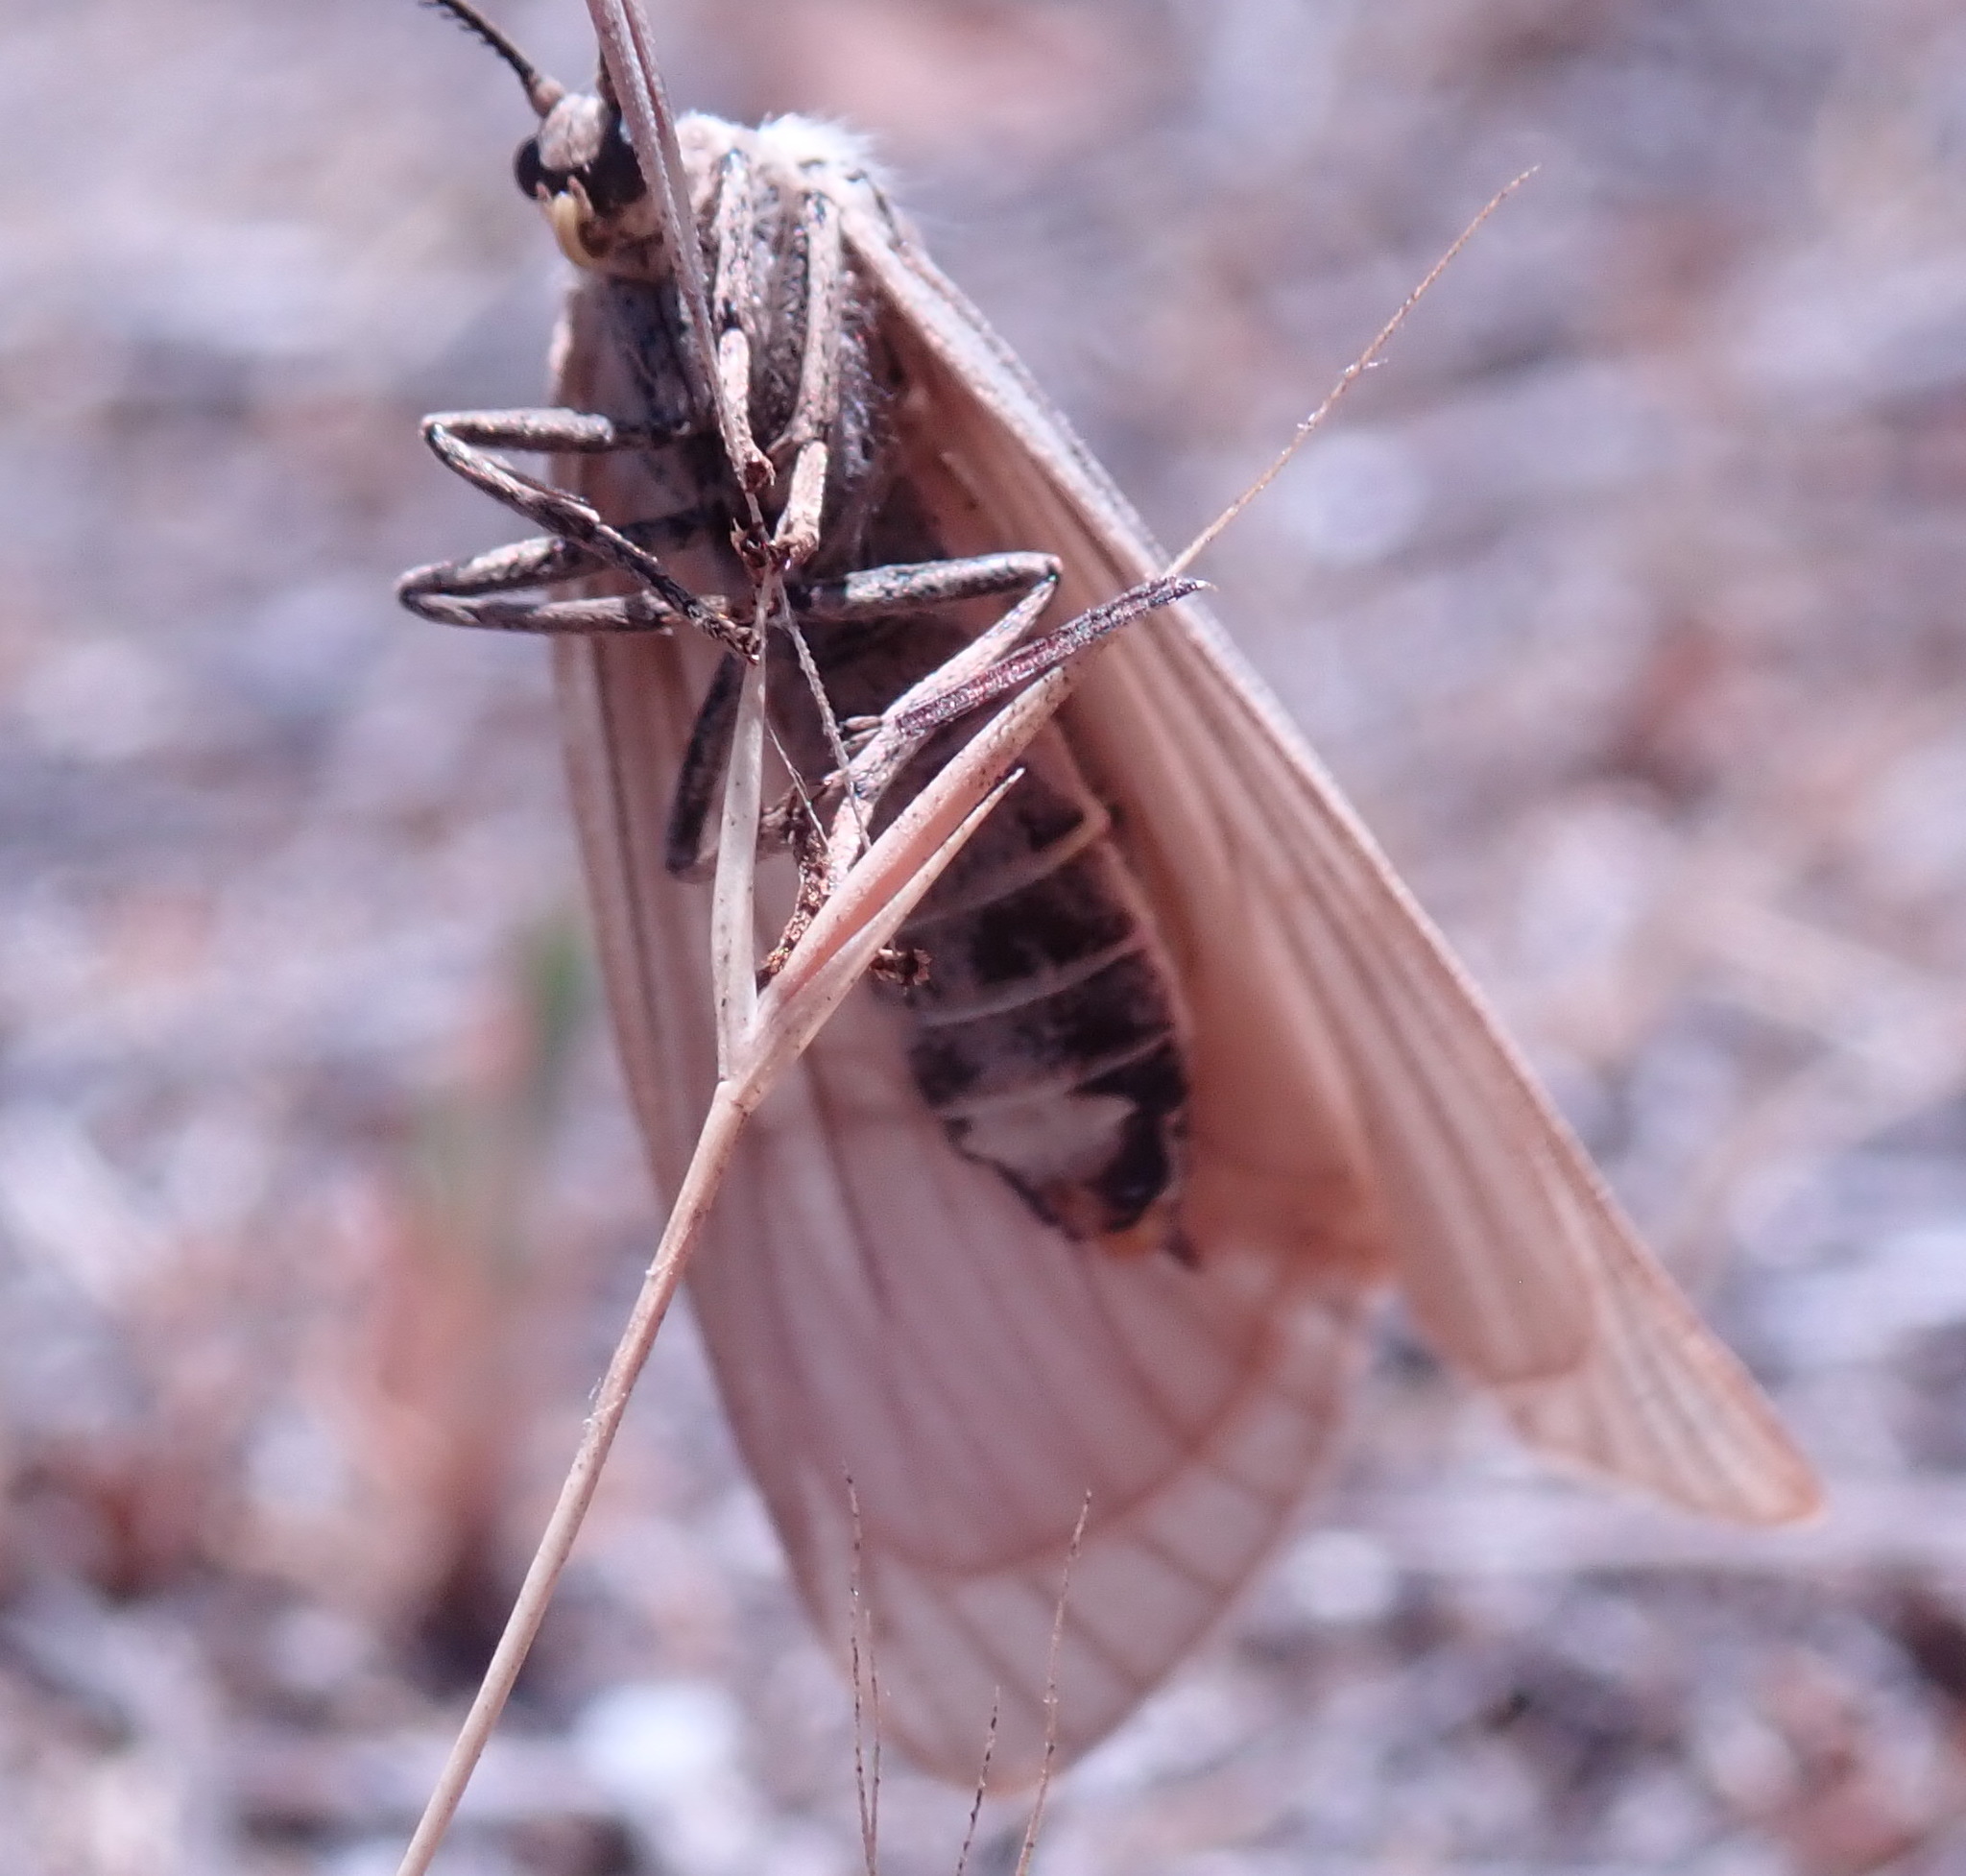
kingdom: Animalia
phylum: Arthropoda
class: Insecta
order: Lepidoptera
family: Notodontidae
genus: Phryganidia
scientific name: Phryganidia californica
